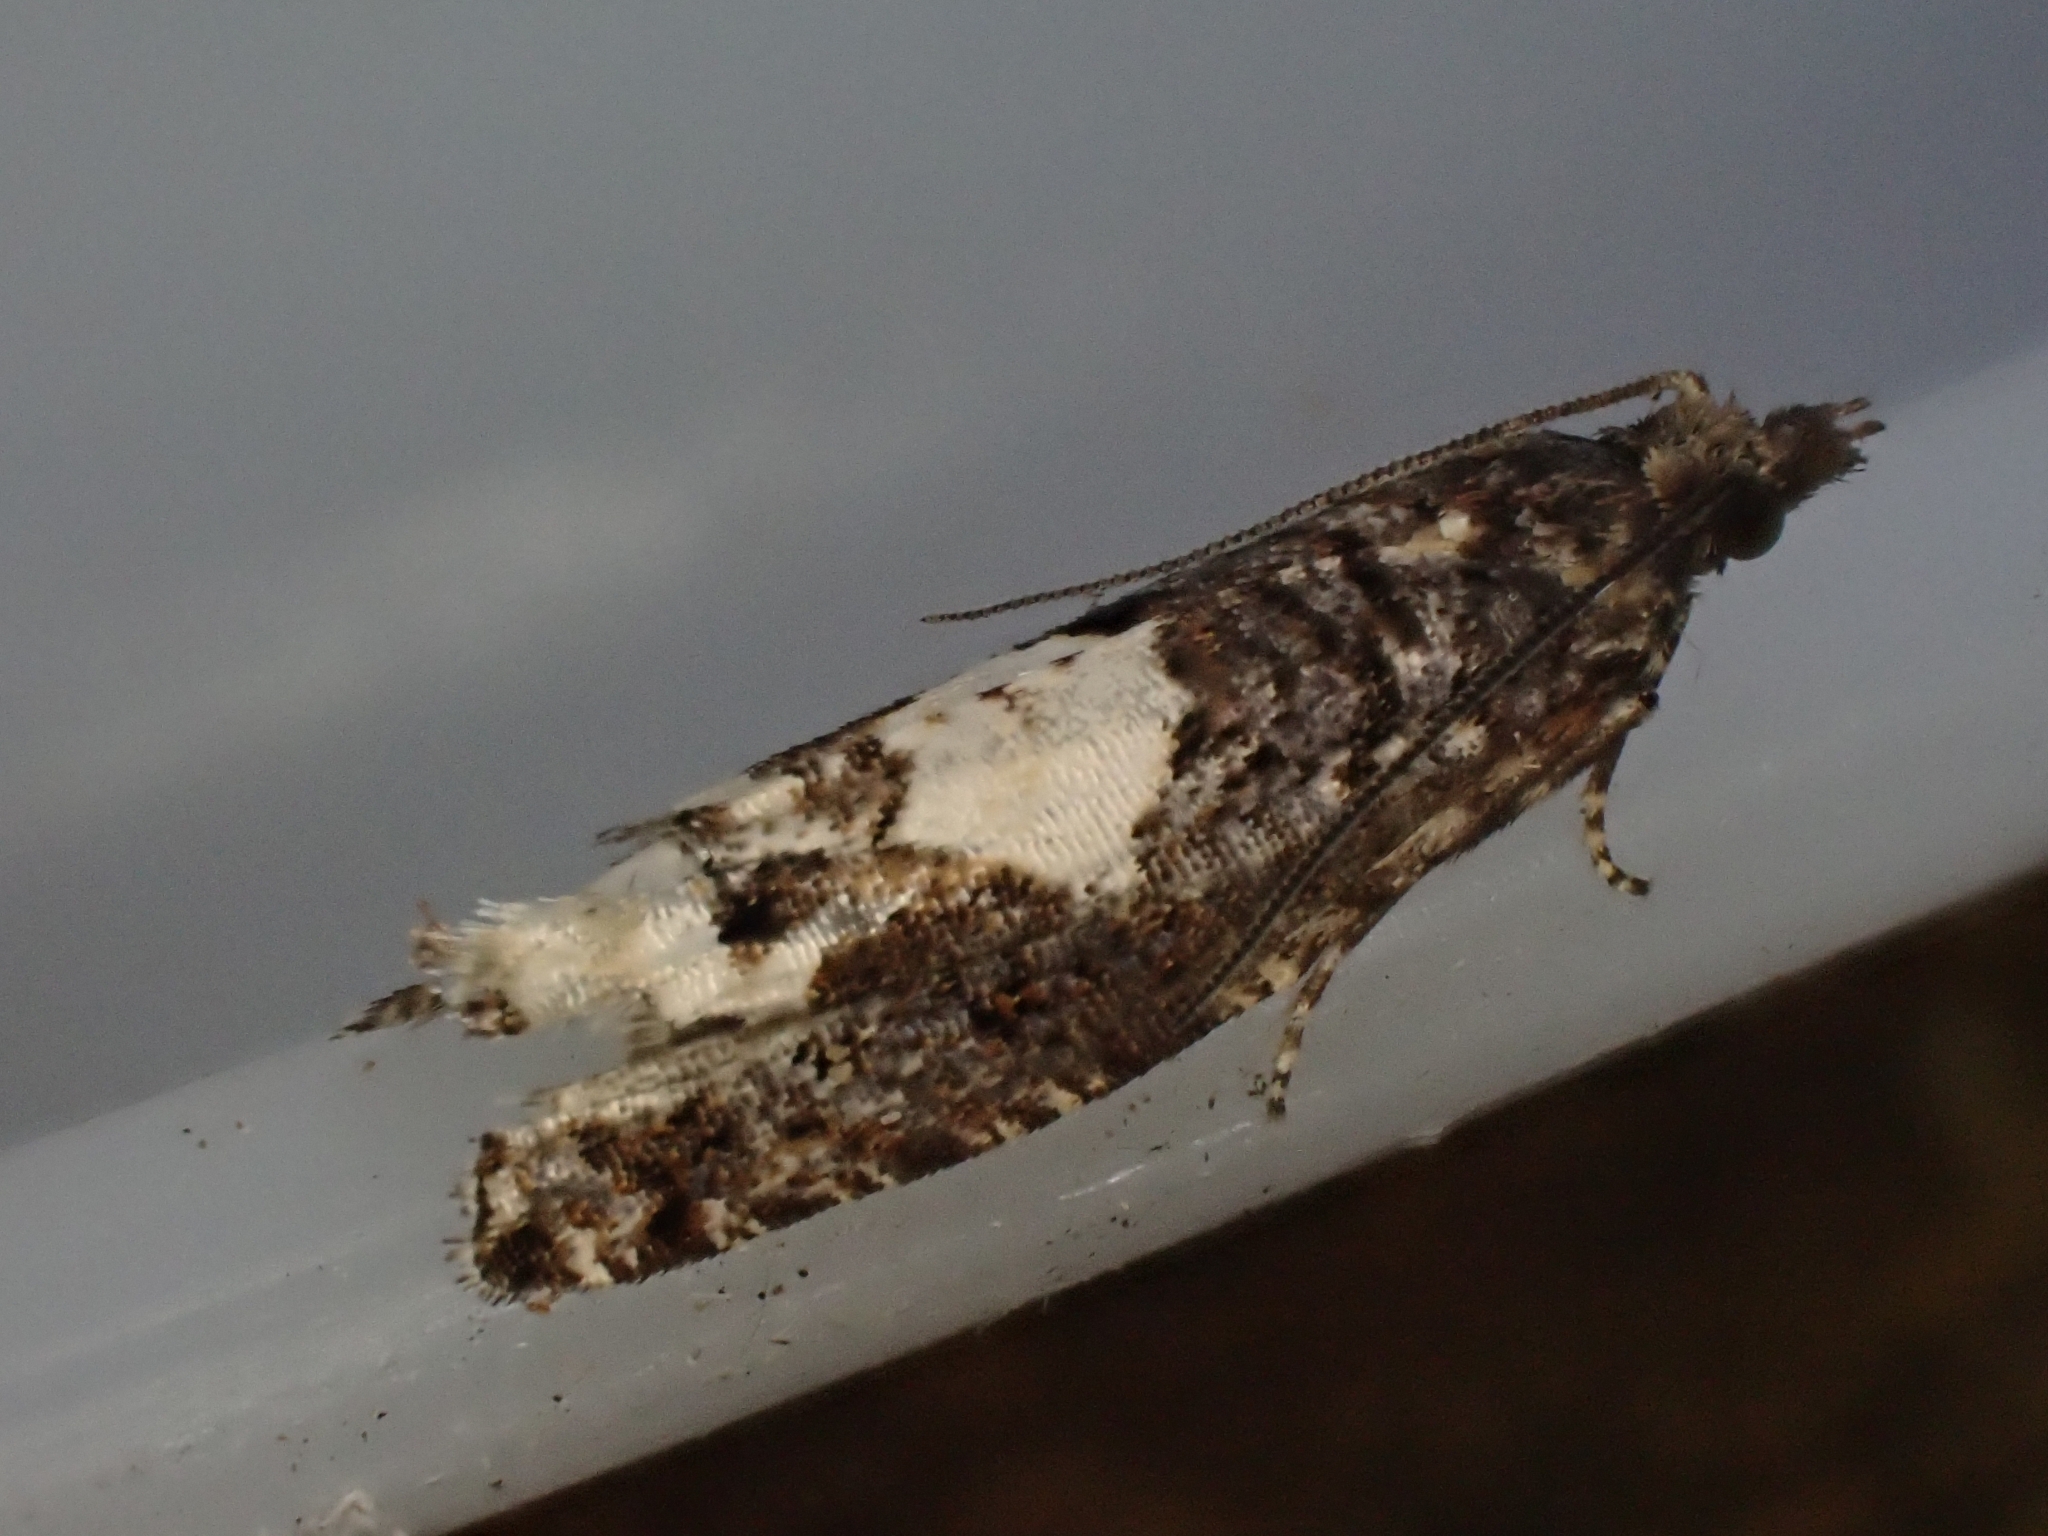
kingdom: Animalia
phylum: Arthropoda
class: Insecta
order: Lepidoptera
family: Tortricidae
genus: Epinotia
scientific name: Epinotia trigonella
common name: White-blotch bell
